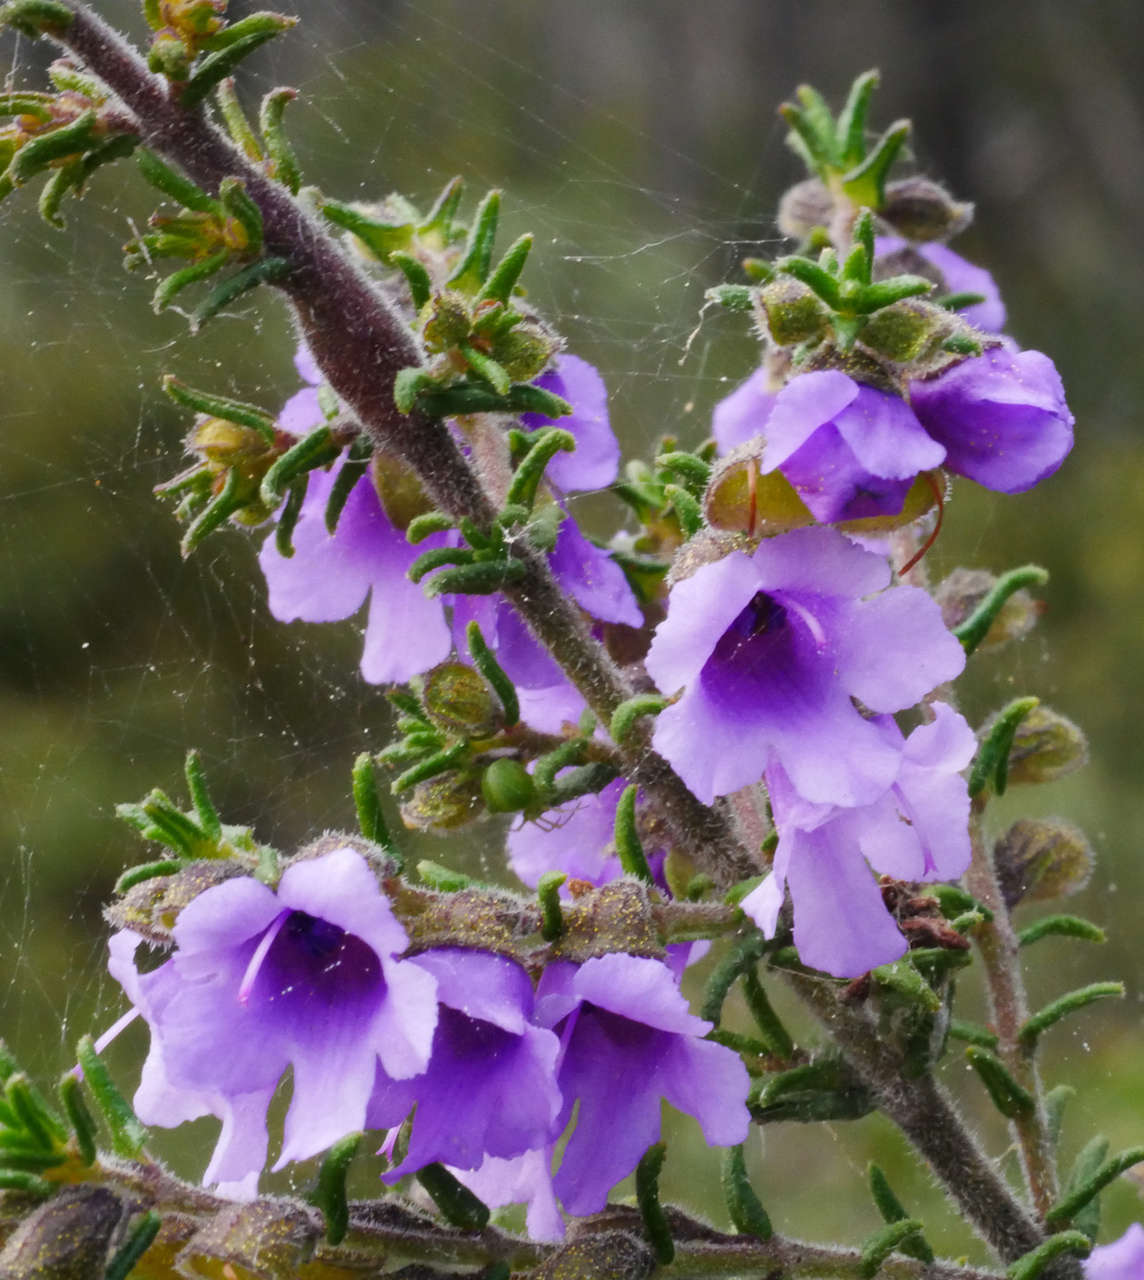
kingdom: Plantae
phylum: Tracheophyta
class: Magnoliopsida
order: Lamiales
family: Lamiaceae
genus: Prostanthera
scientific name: Prostanthera decussata
